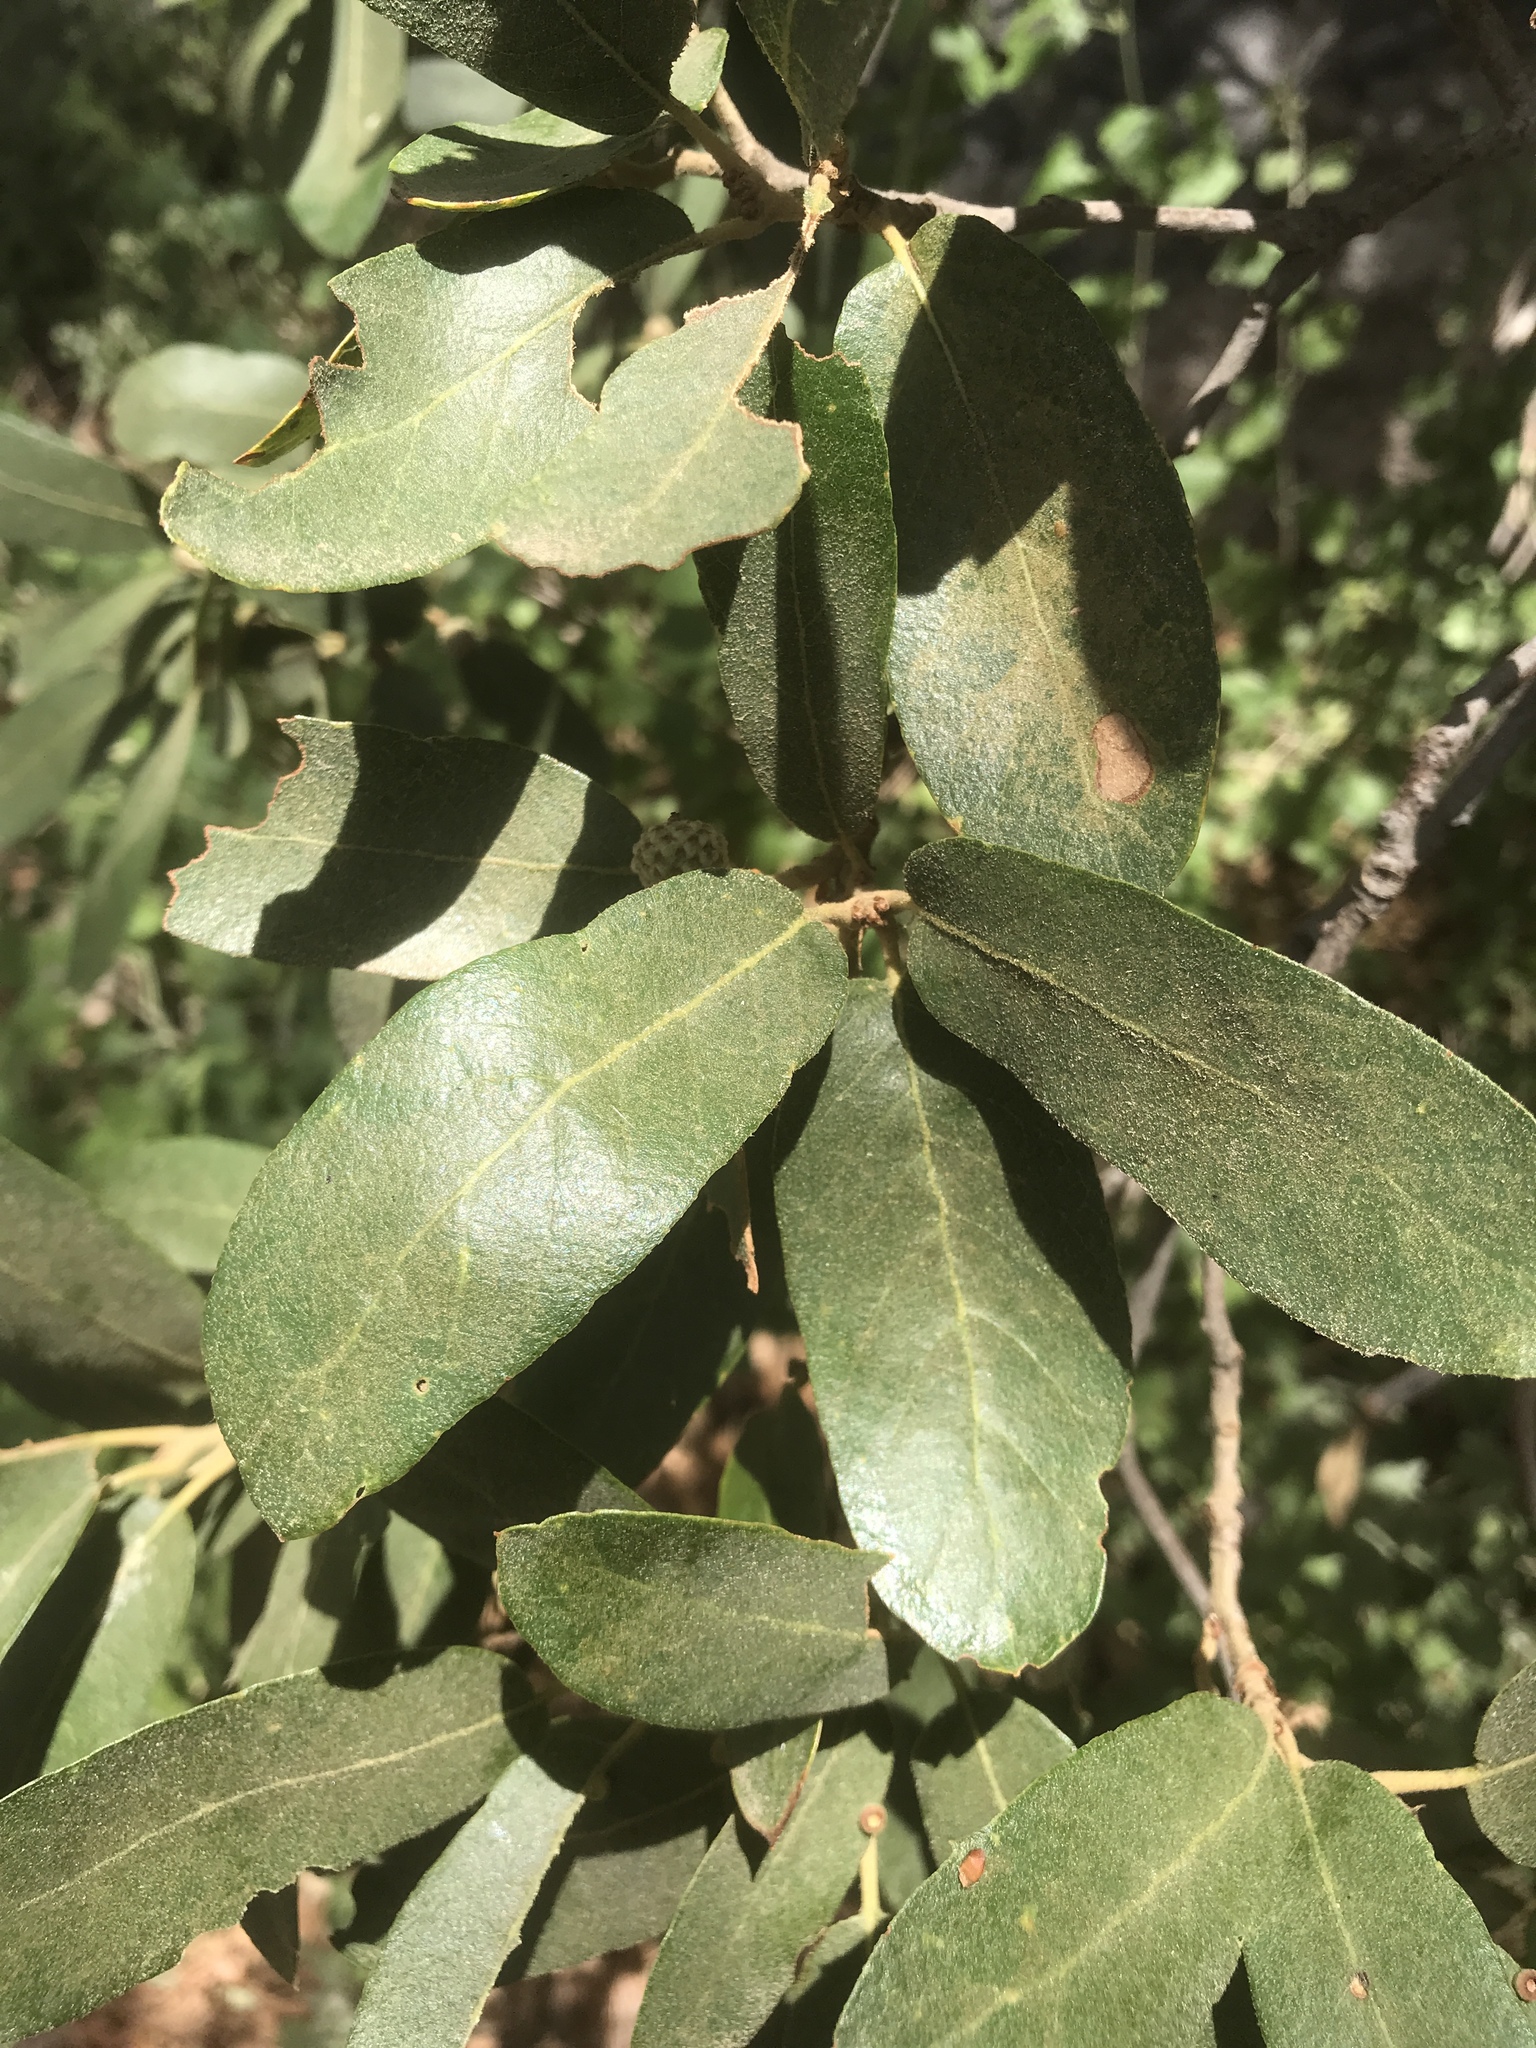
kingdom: Plantae
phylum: Tracheophyta
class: Magnoliopsida
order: Fagales
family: Fagaceae
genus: Quercus
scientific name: Quercus arizonica
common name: Arizona white oak
